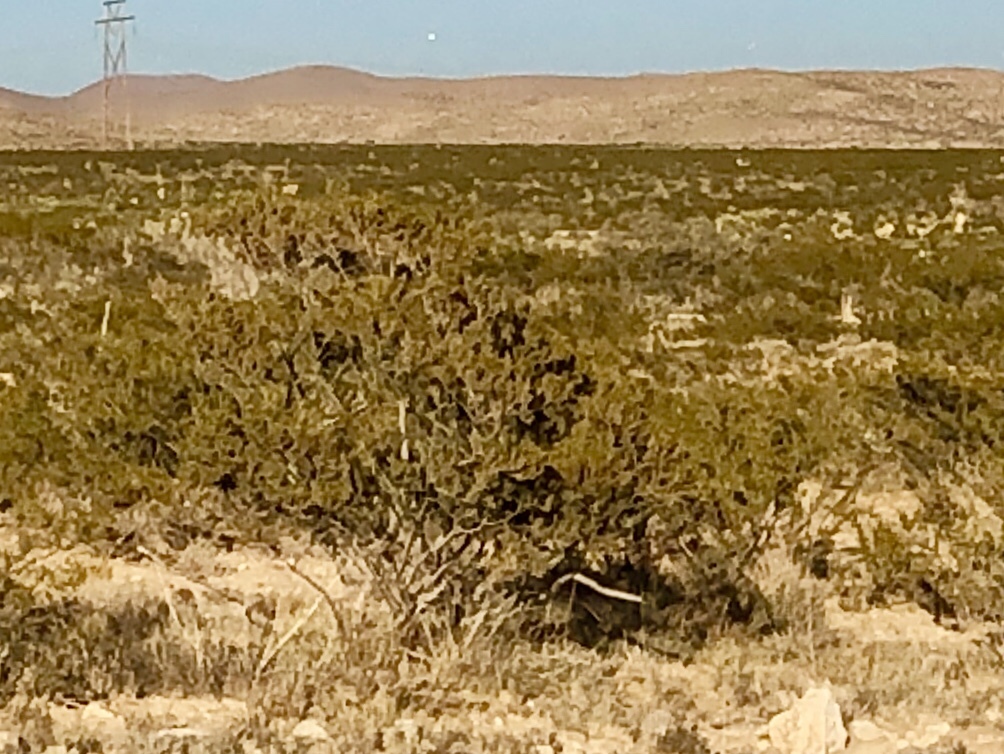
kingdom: Plantae
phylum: Tracheophyta
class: Magnoliopsida
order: Zygophyllales
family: Zygophyllaceae
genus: Larrea
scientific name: Larrea tridentata
